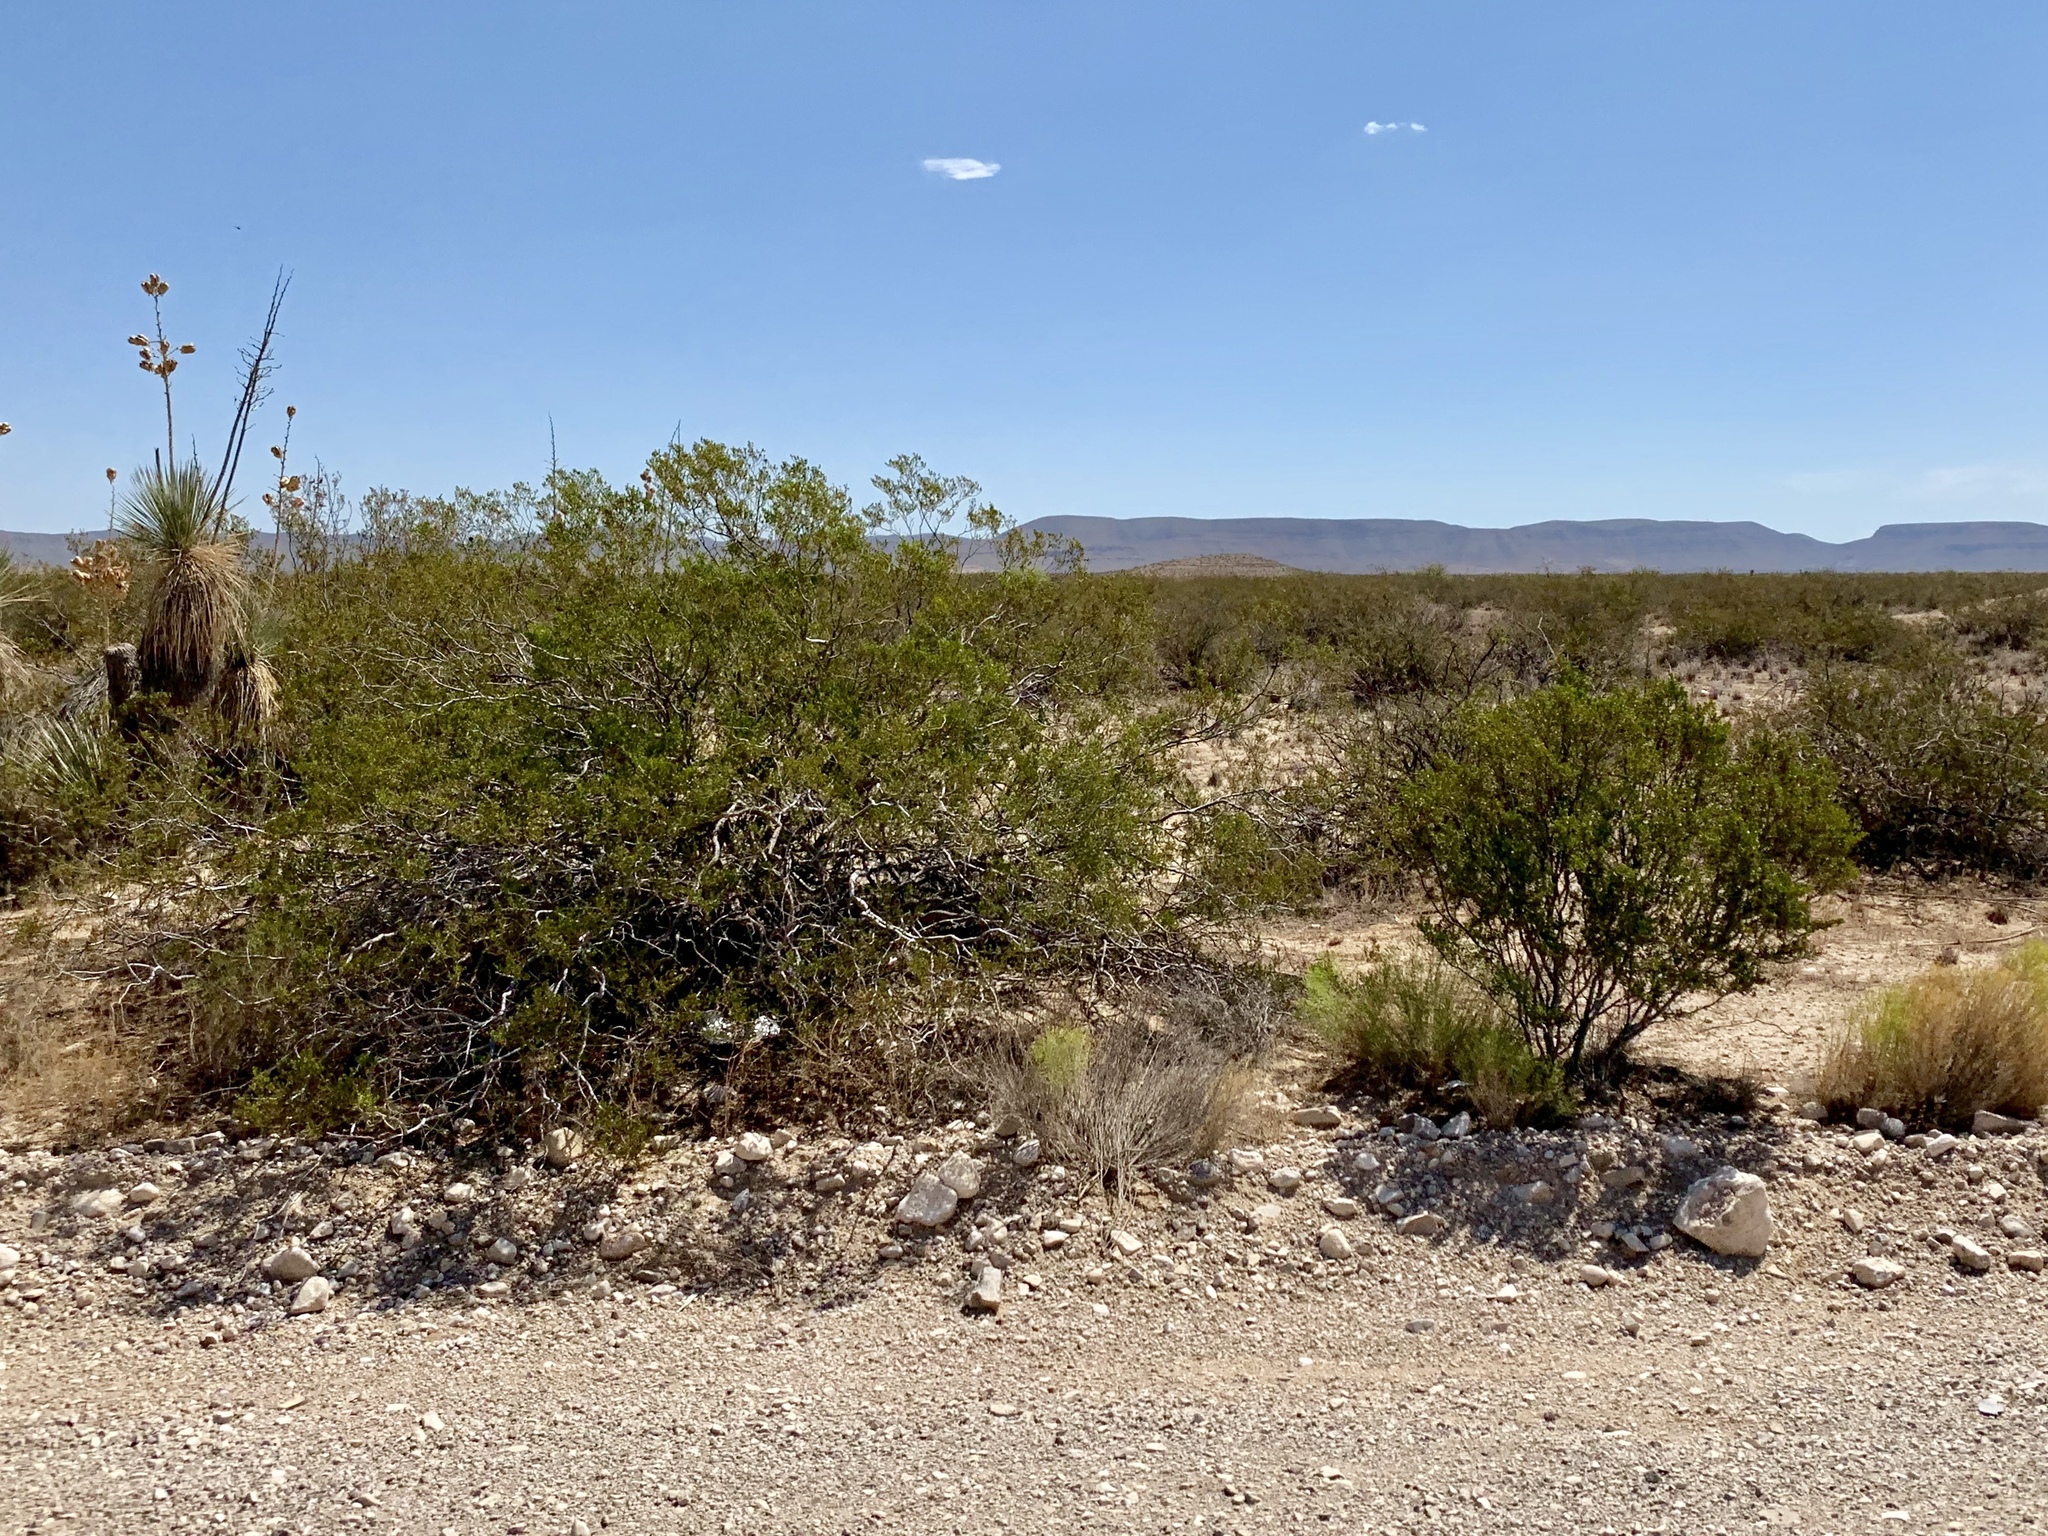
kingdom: Plantae
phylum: Tracheophyta
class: Magnoliopsida
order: Zygophyllales
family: Zygophyllaceae
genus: Larrea
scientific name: Larrea tridentata
